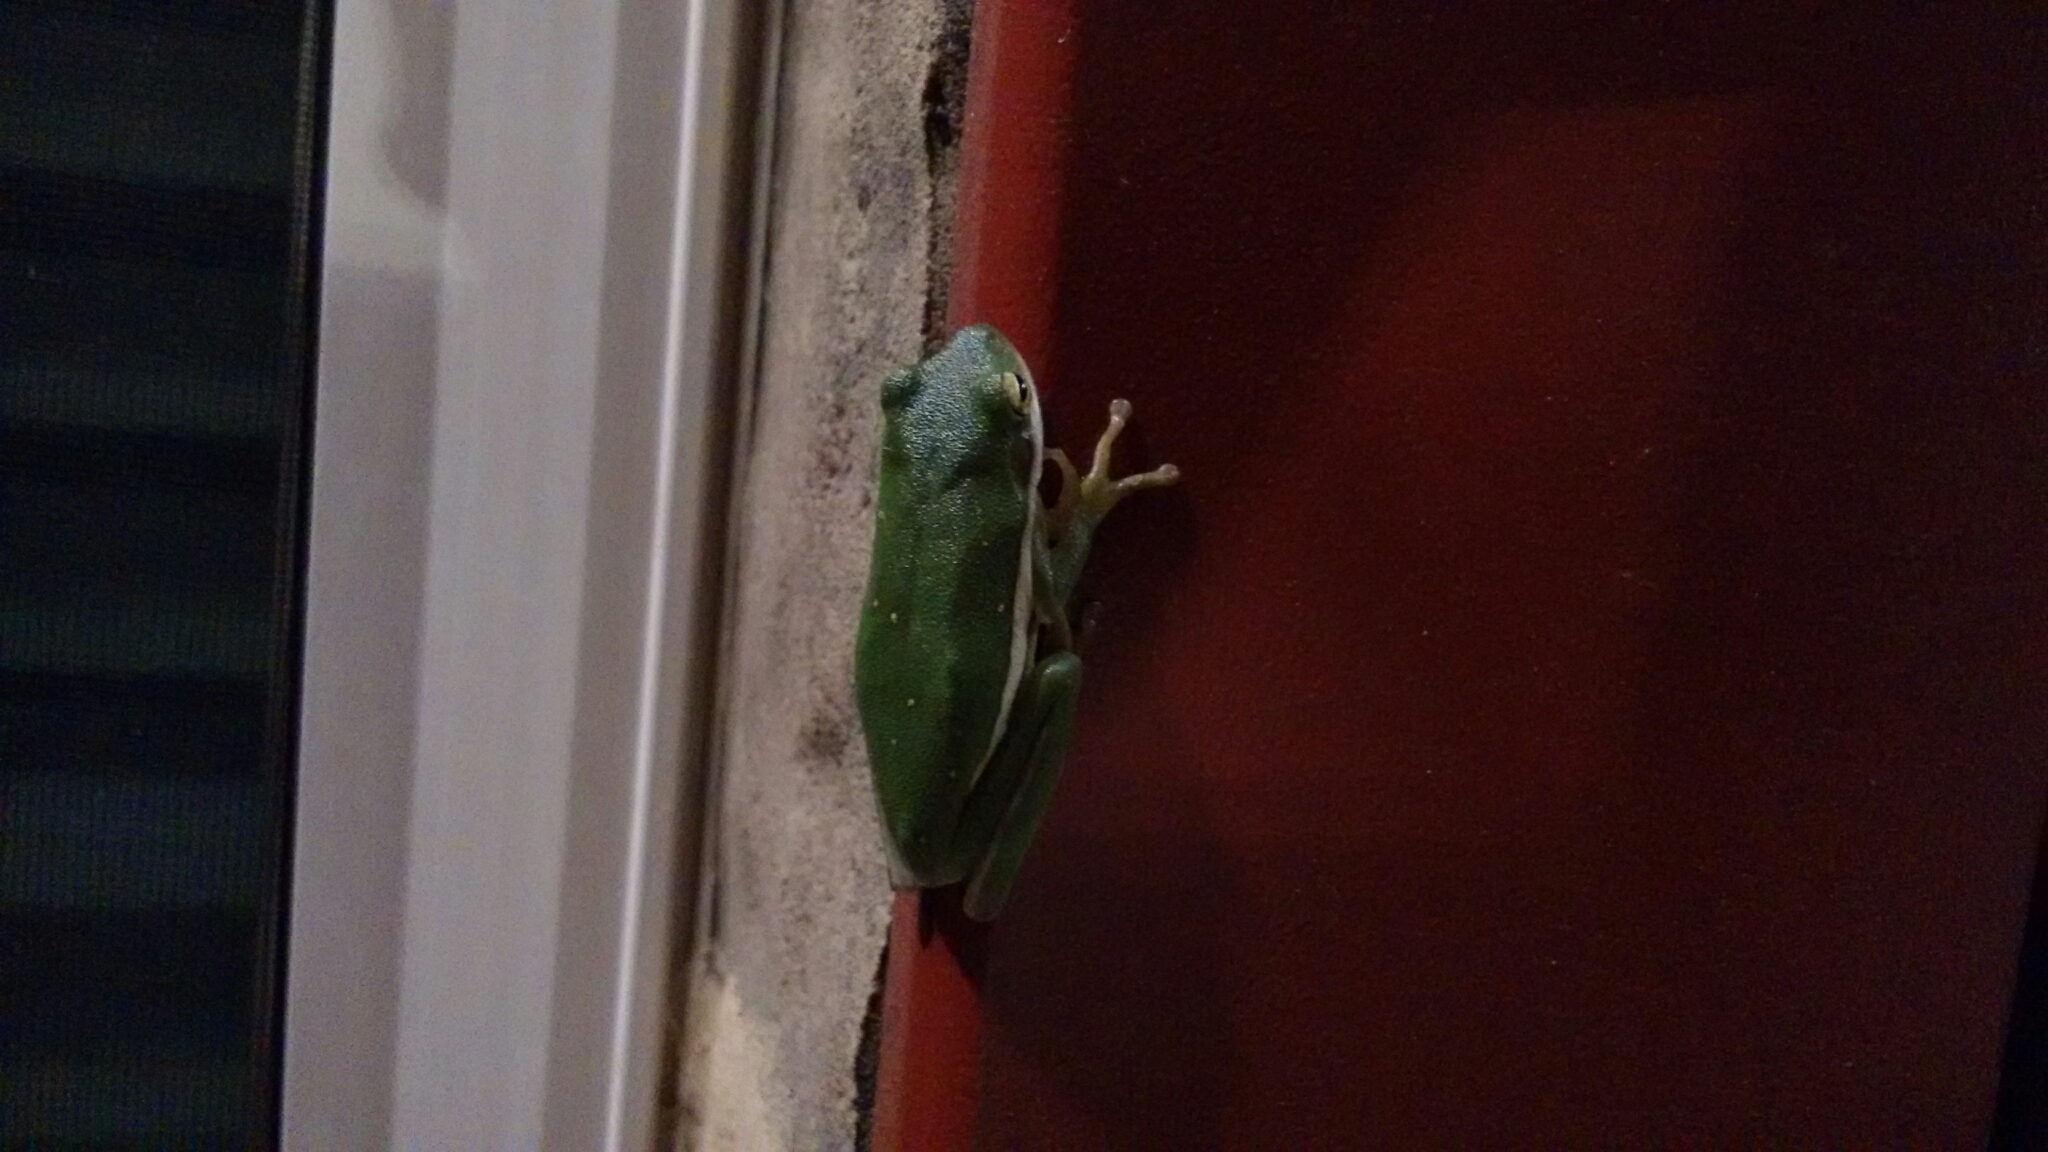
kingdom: Animalia
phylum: Chordata
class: Amphibia
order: Anura
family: Hylidae
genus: Dryophytes
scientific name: Dryophytes cinereus
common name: Green treefrog
